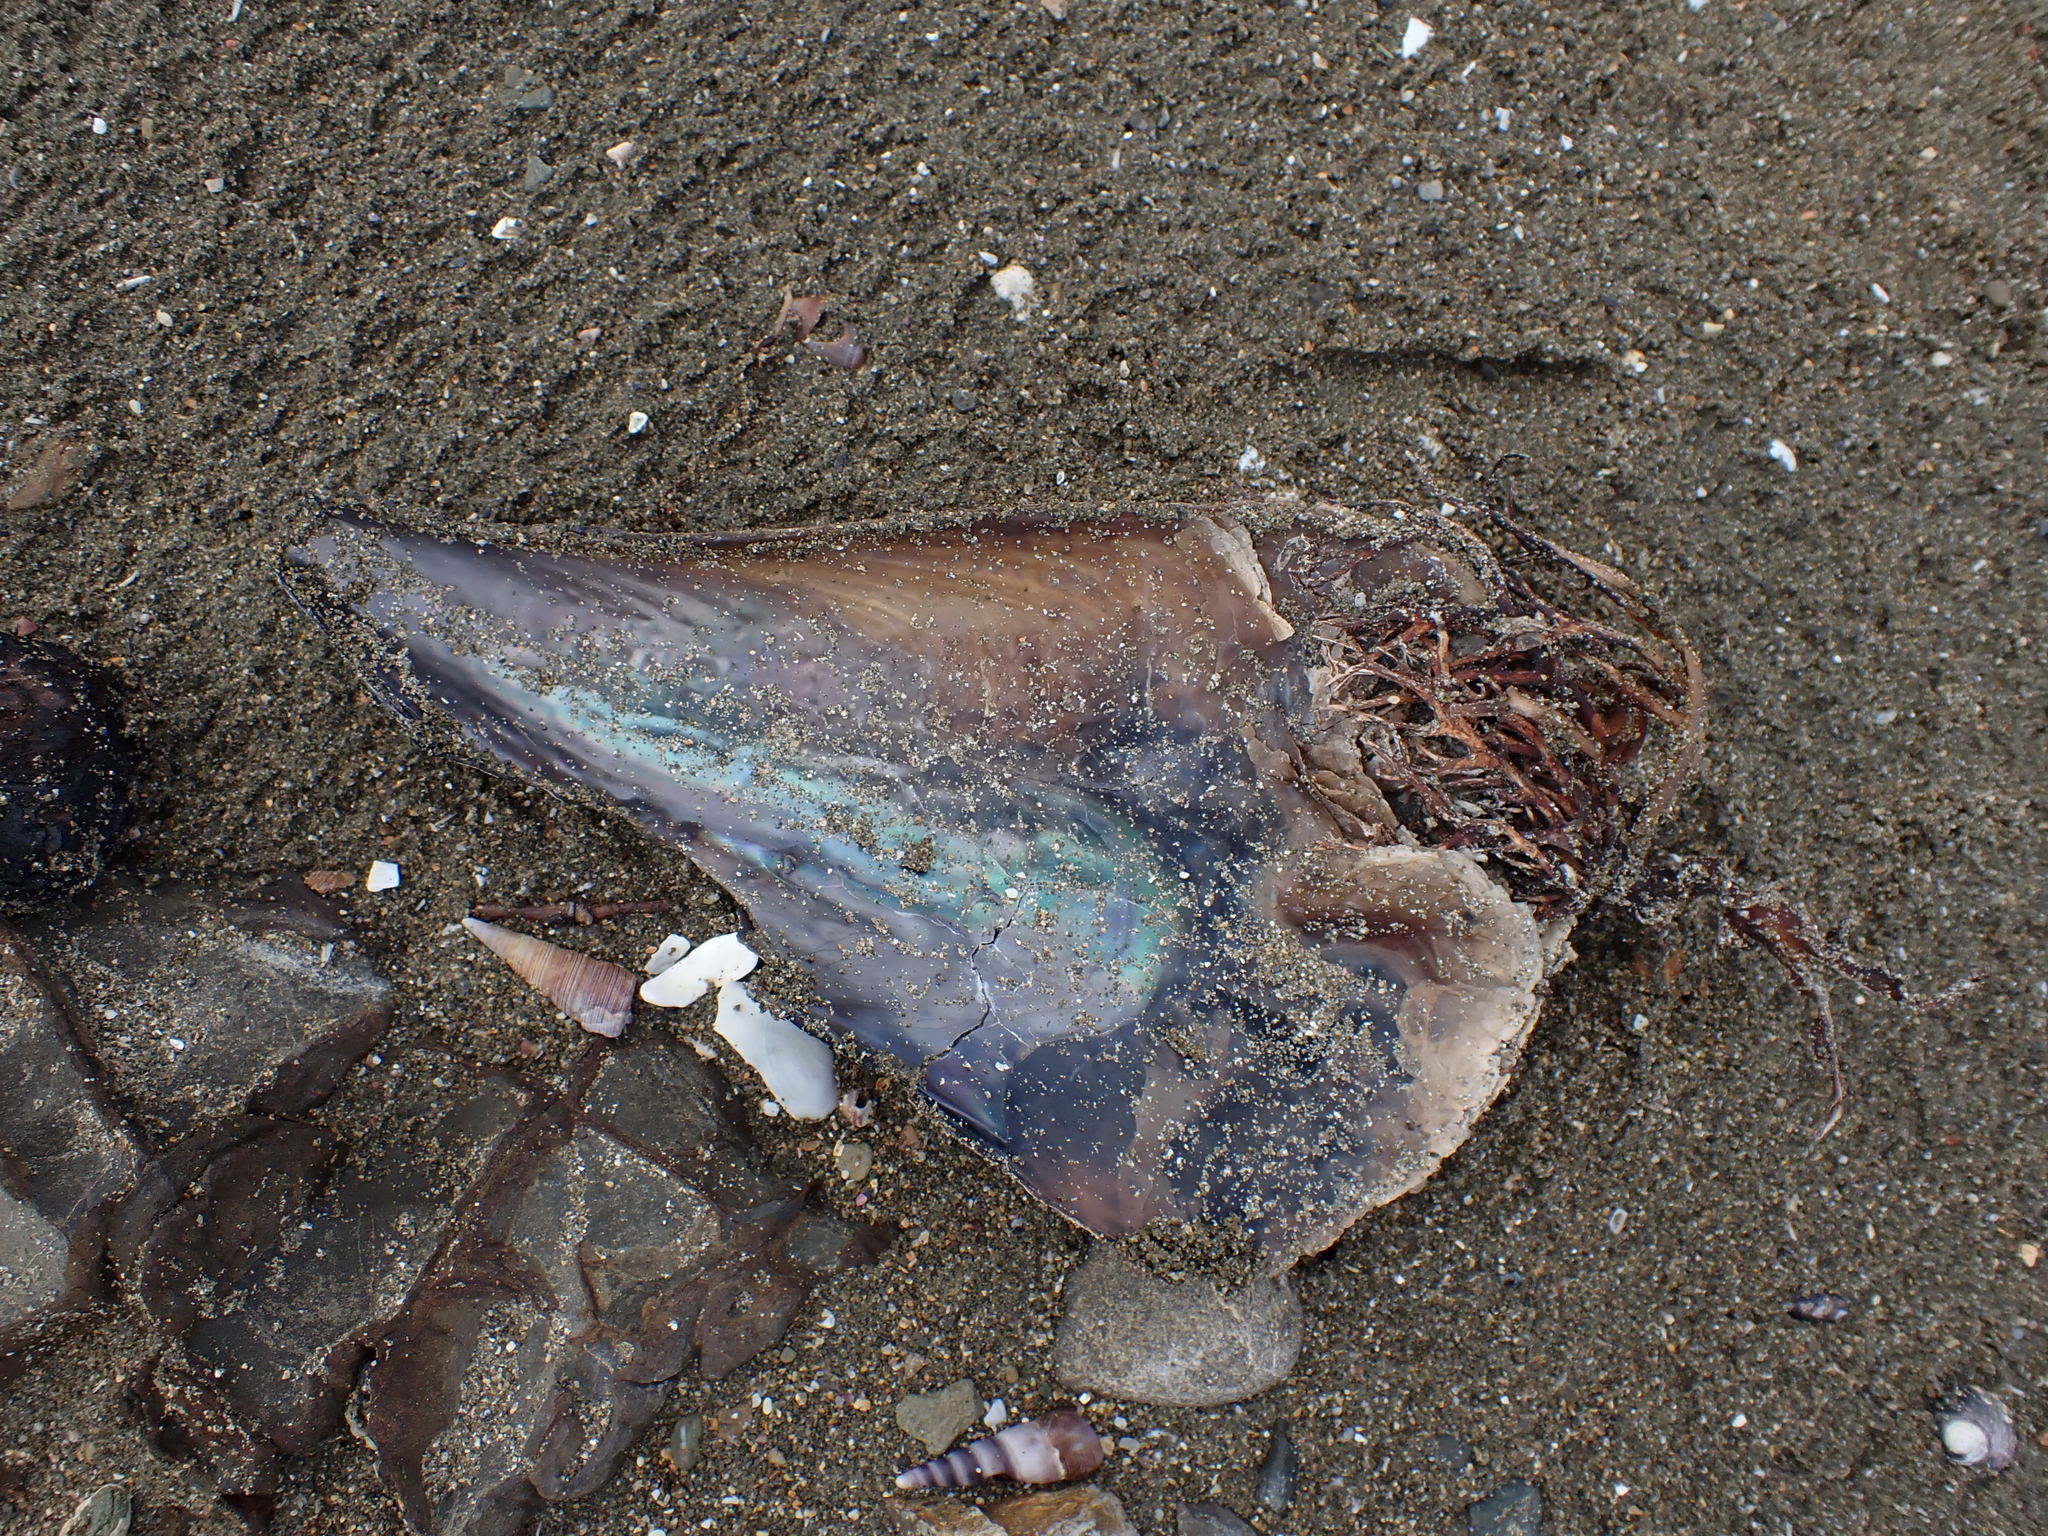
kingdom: Animalia
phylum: Mollusca
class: Bivalvia
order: Ostreida
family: Pinnidae
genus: Atrina
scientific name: Atrina zelandica
